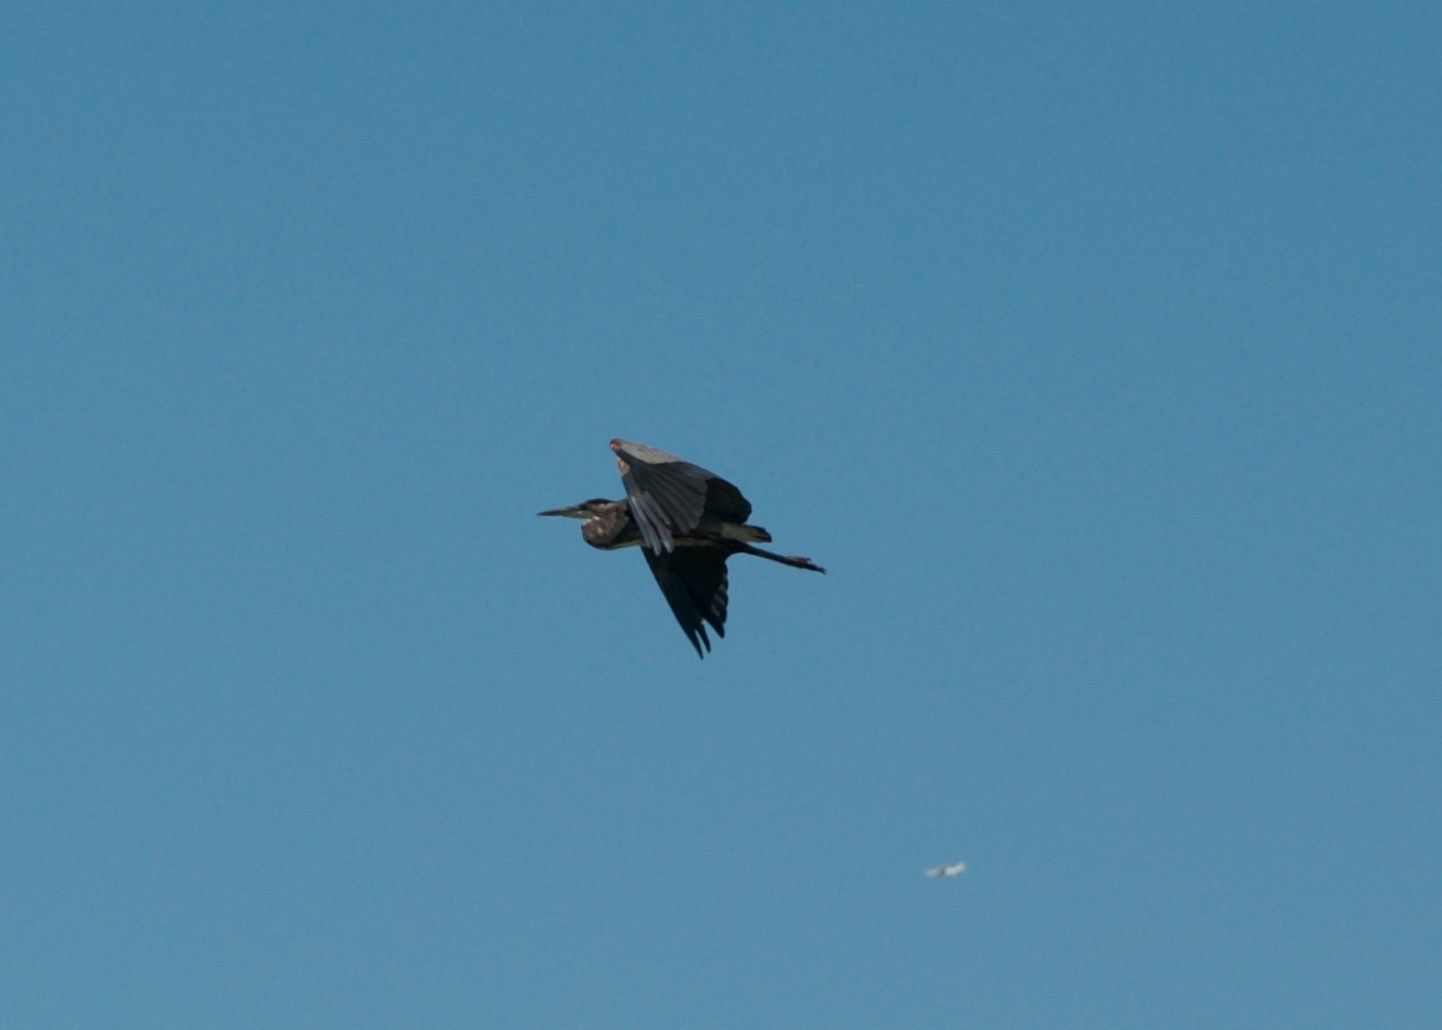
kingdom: Animalia
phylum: Chordata
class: Aves
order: Pelecaniformes
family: Ardeidae
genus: Ardea
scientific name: Ardea herodias
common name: Great blue heron
